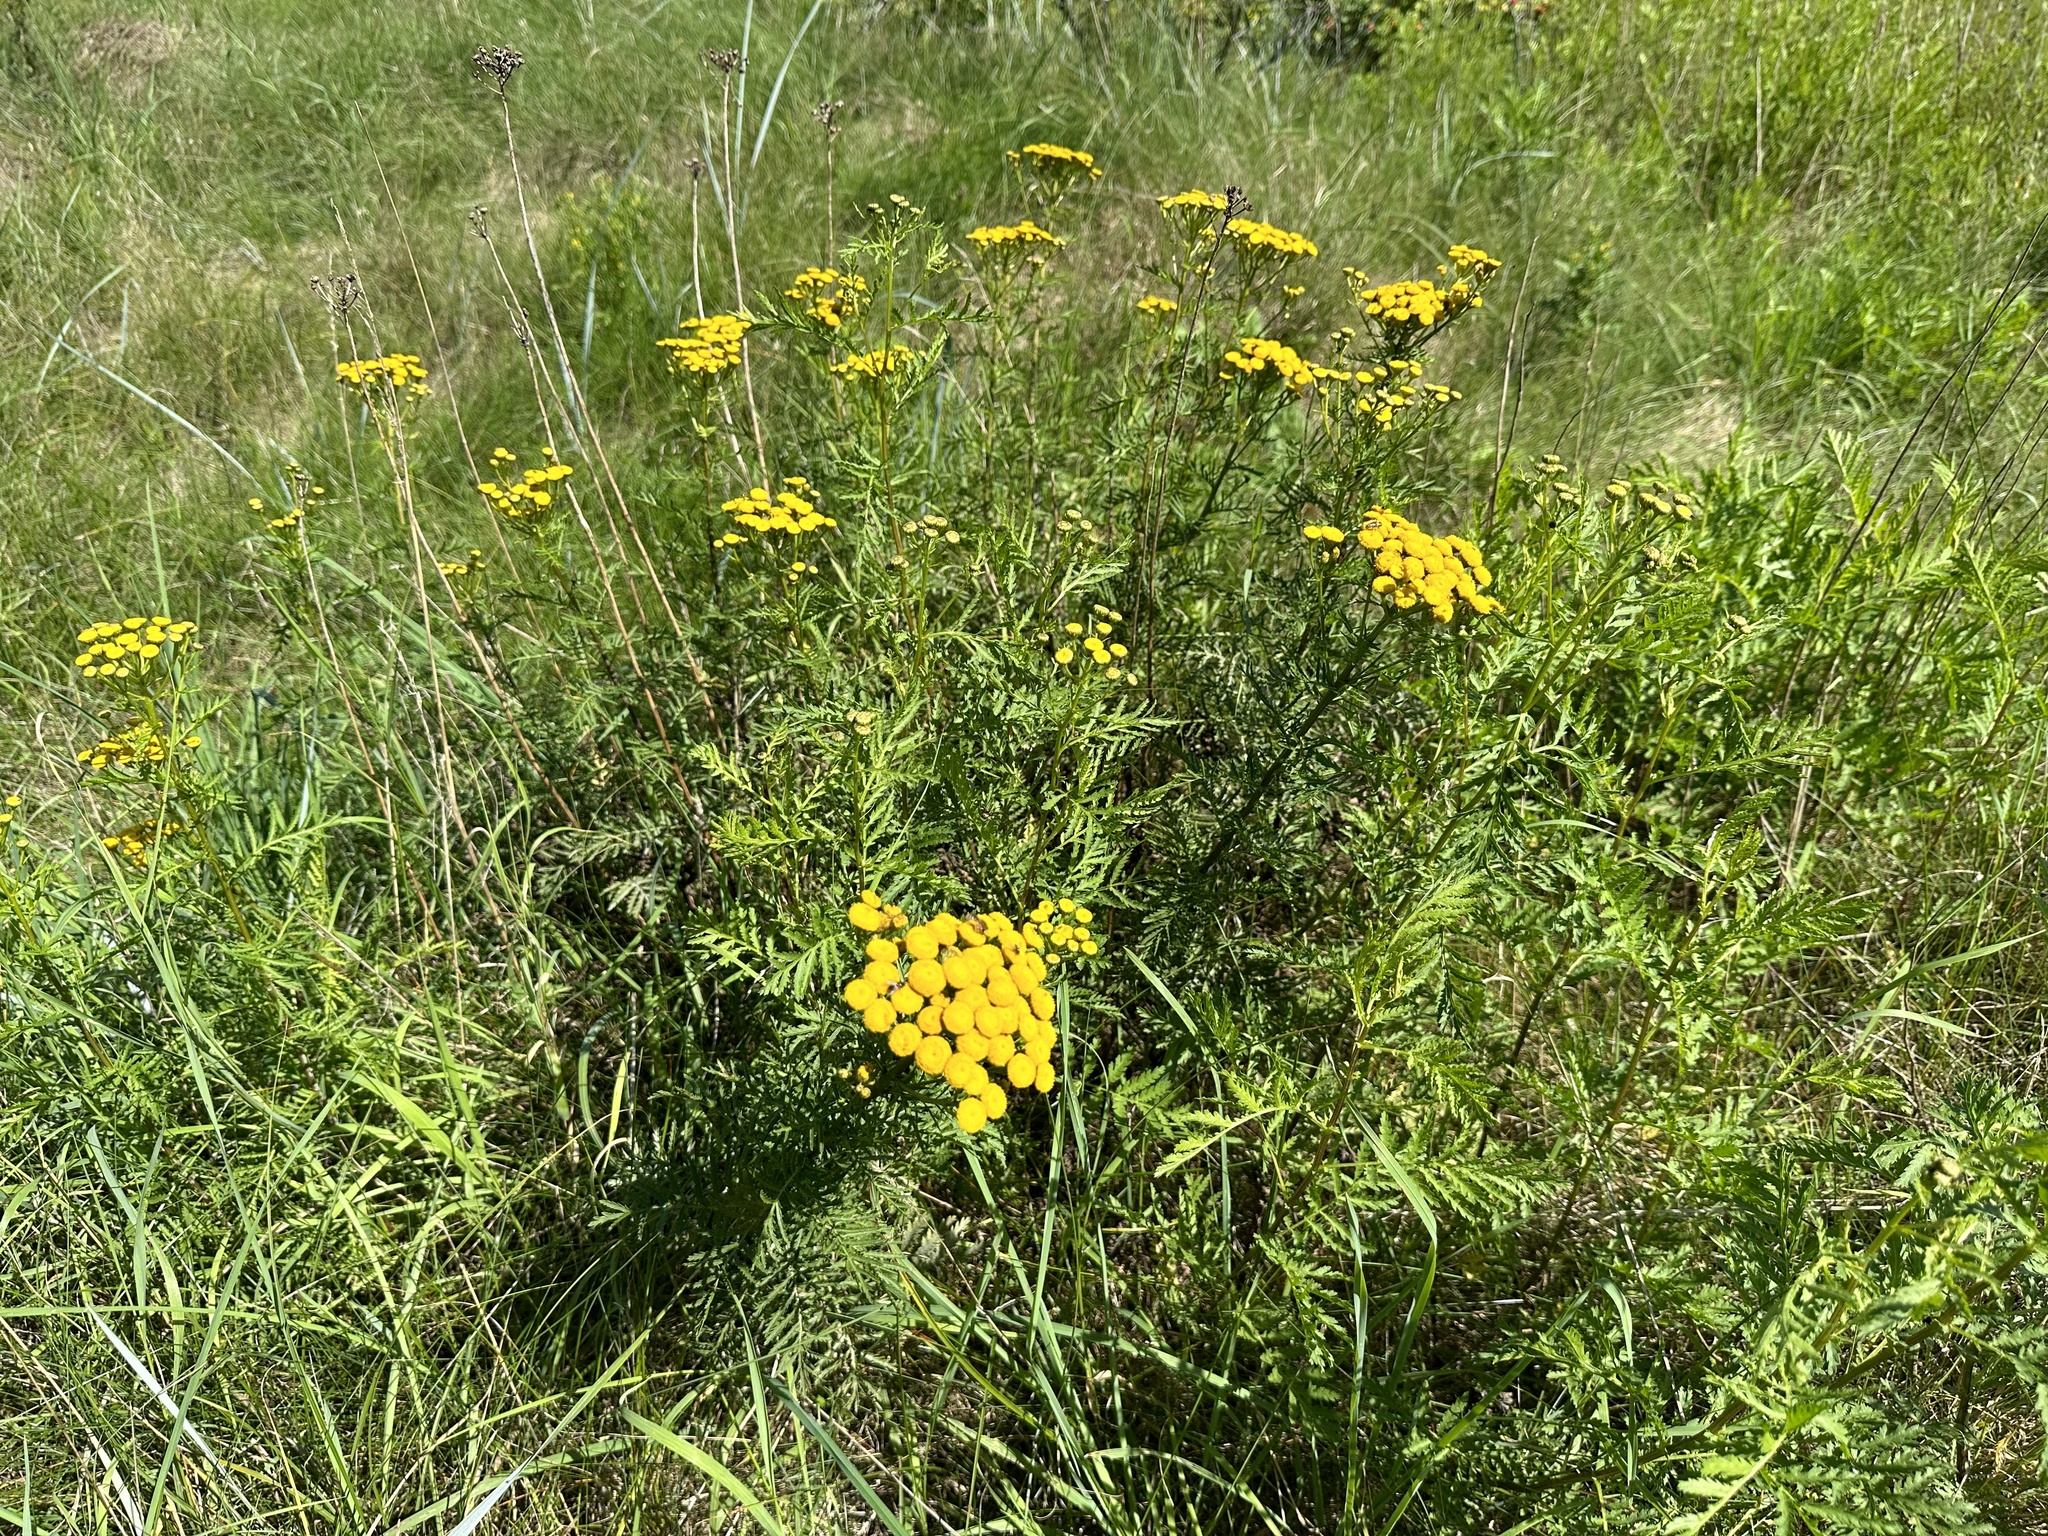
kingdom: Plantae
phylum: Tracheophyta
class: Magnoliopsida
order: Asterales
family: Asteraceae
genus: Tanacetum
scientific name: Tanacetum vulgare
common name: Common tansy
